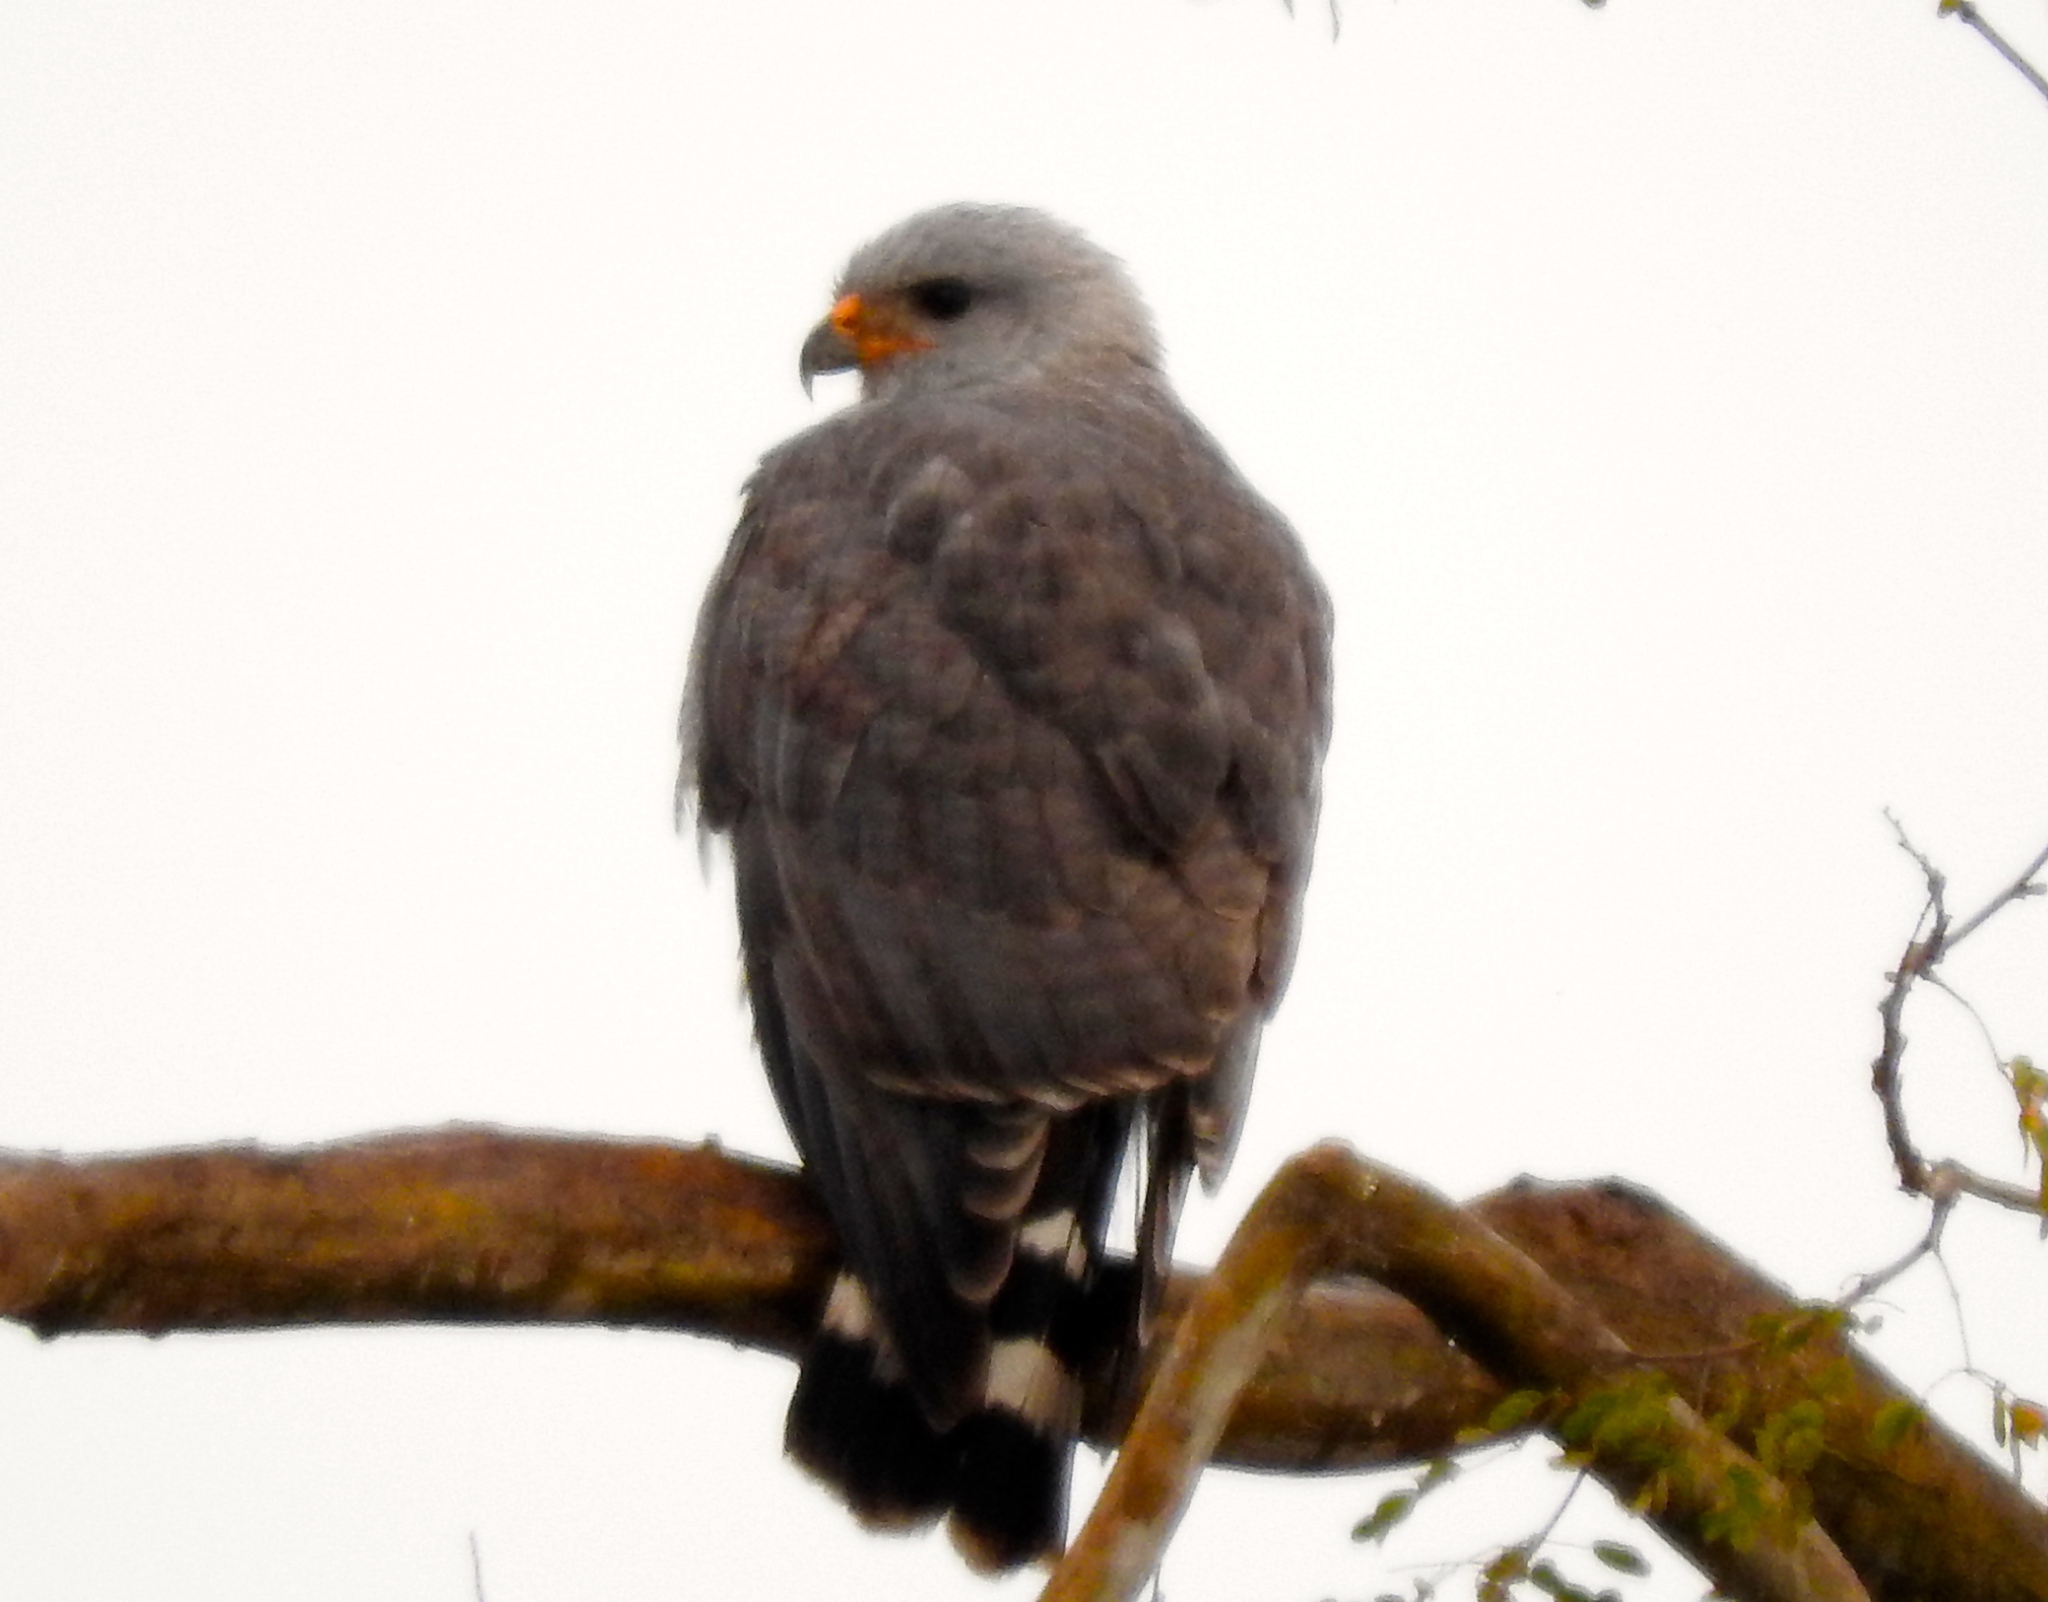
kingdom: Animalia
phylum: Chordata
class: Aves
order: Accipitriformes
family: Accipitridae
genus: Buteo
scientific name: Buteo nitidus
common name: Grey-lined hawk
